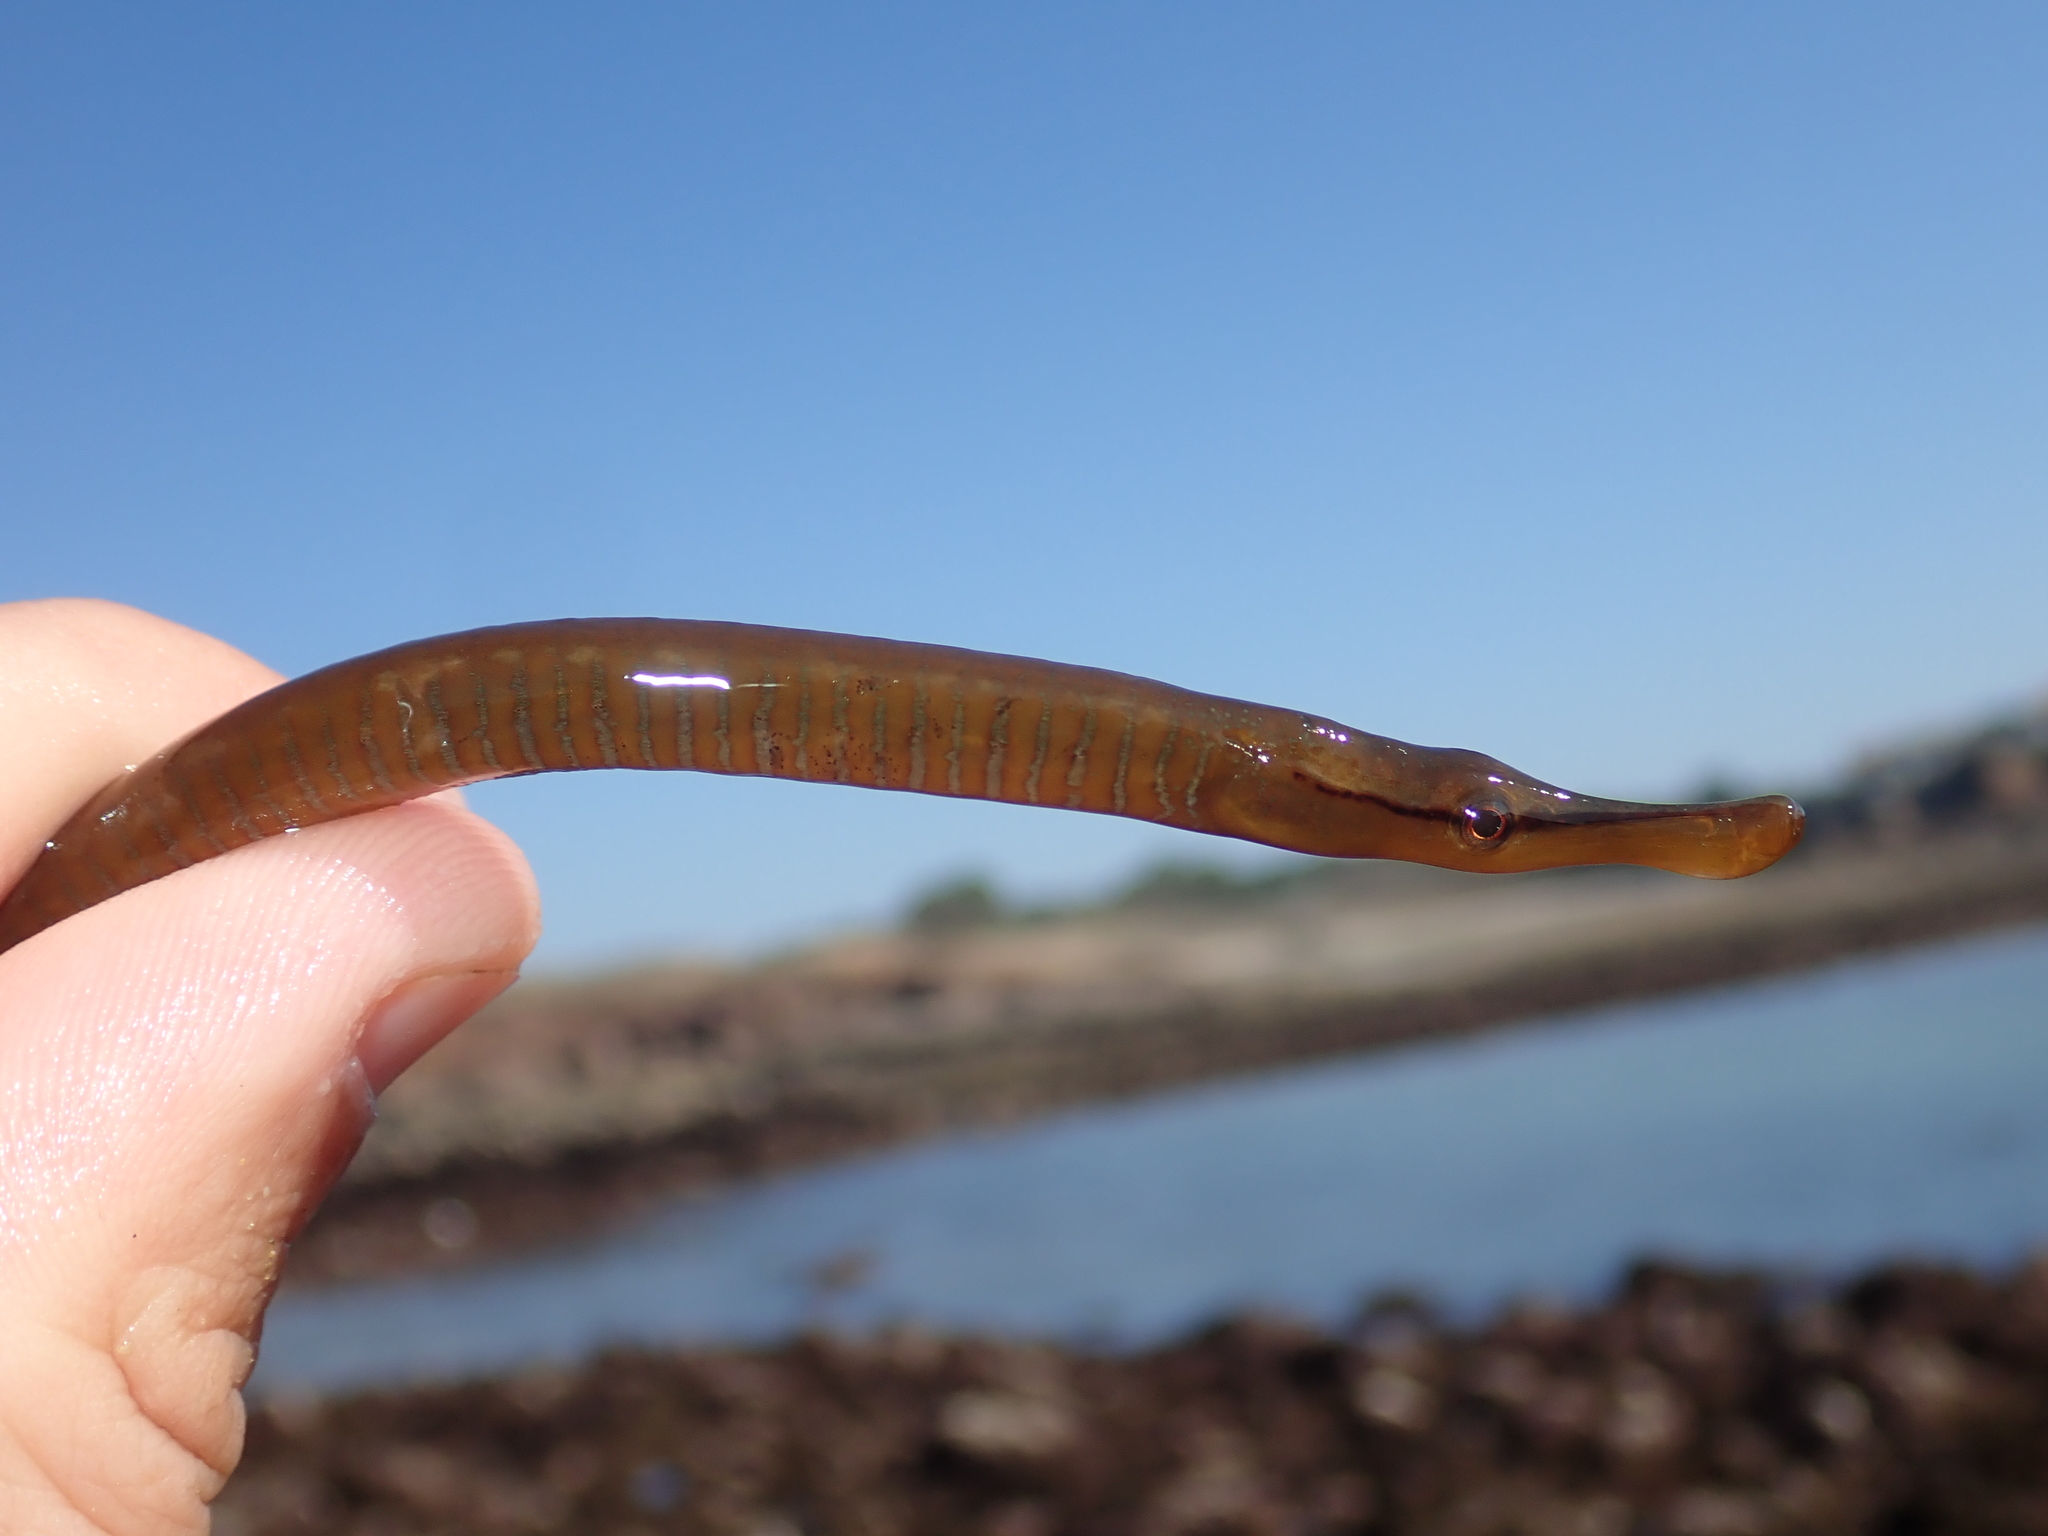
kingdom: Animalia
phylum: Chordata
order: Syngnathiformes
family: Syngnathidae
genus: Entelurus
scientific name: Entelurus aequoreus
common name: Snake pipefish
